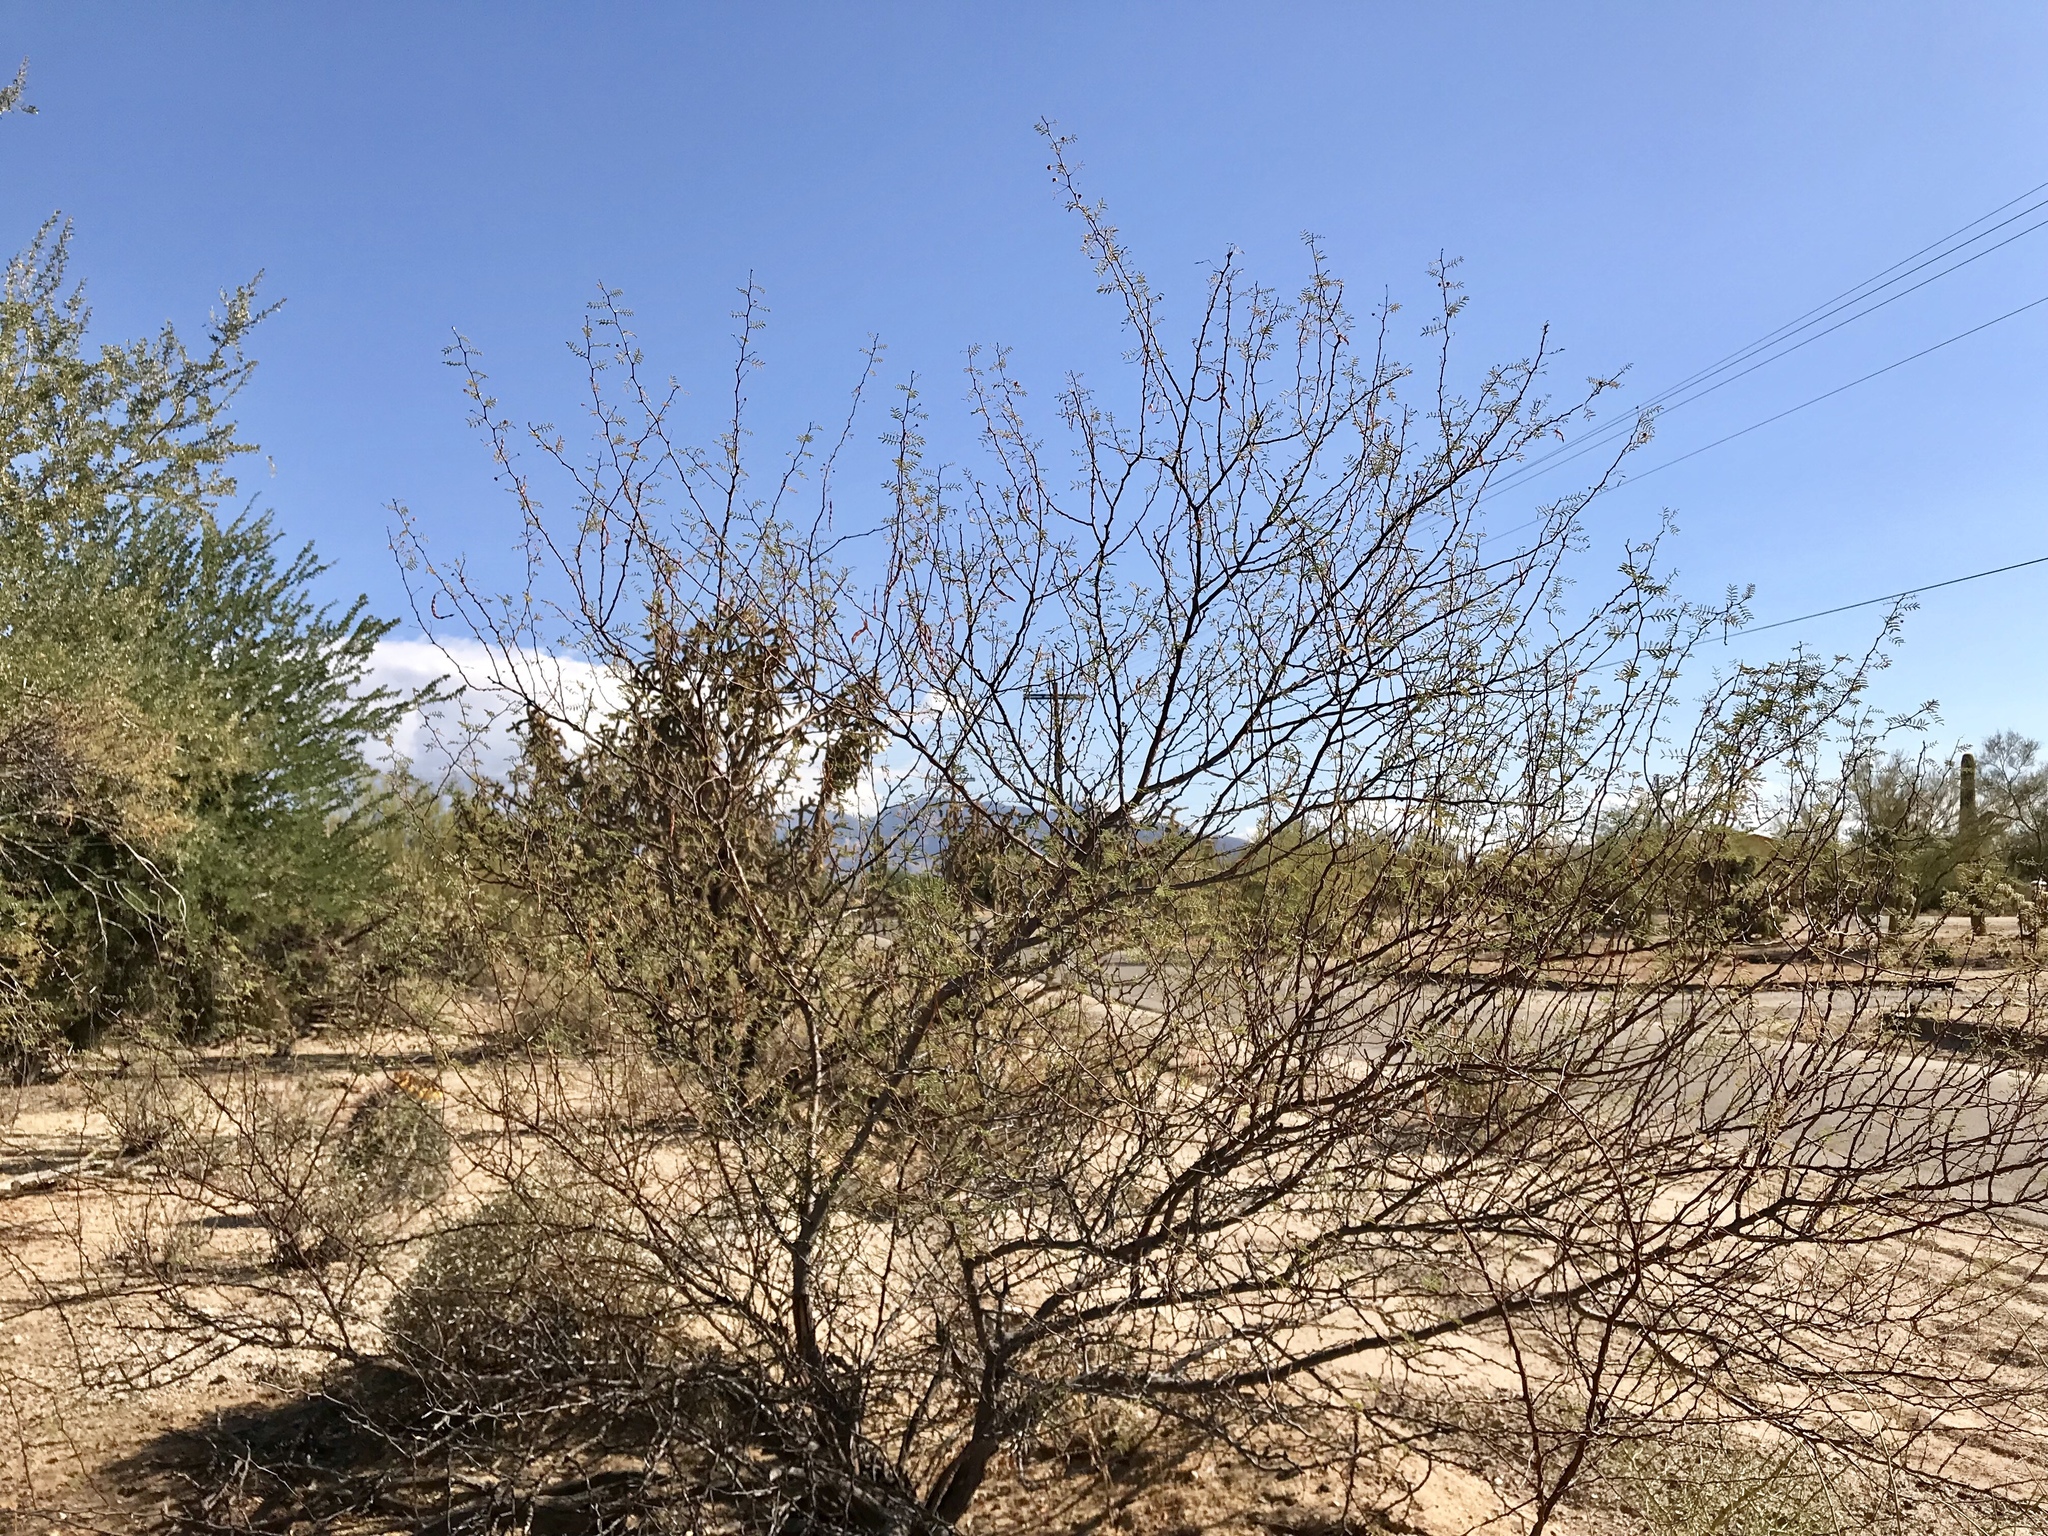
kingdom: Plantae
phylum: Tracheophyta
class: Magnoliopsida
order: Fabales
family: Fabaceae
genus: Vachellia
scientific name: Vachellia constricta
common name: Mescat acacia
